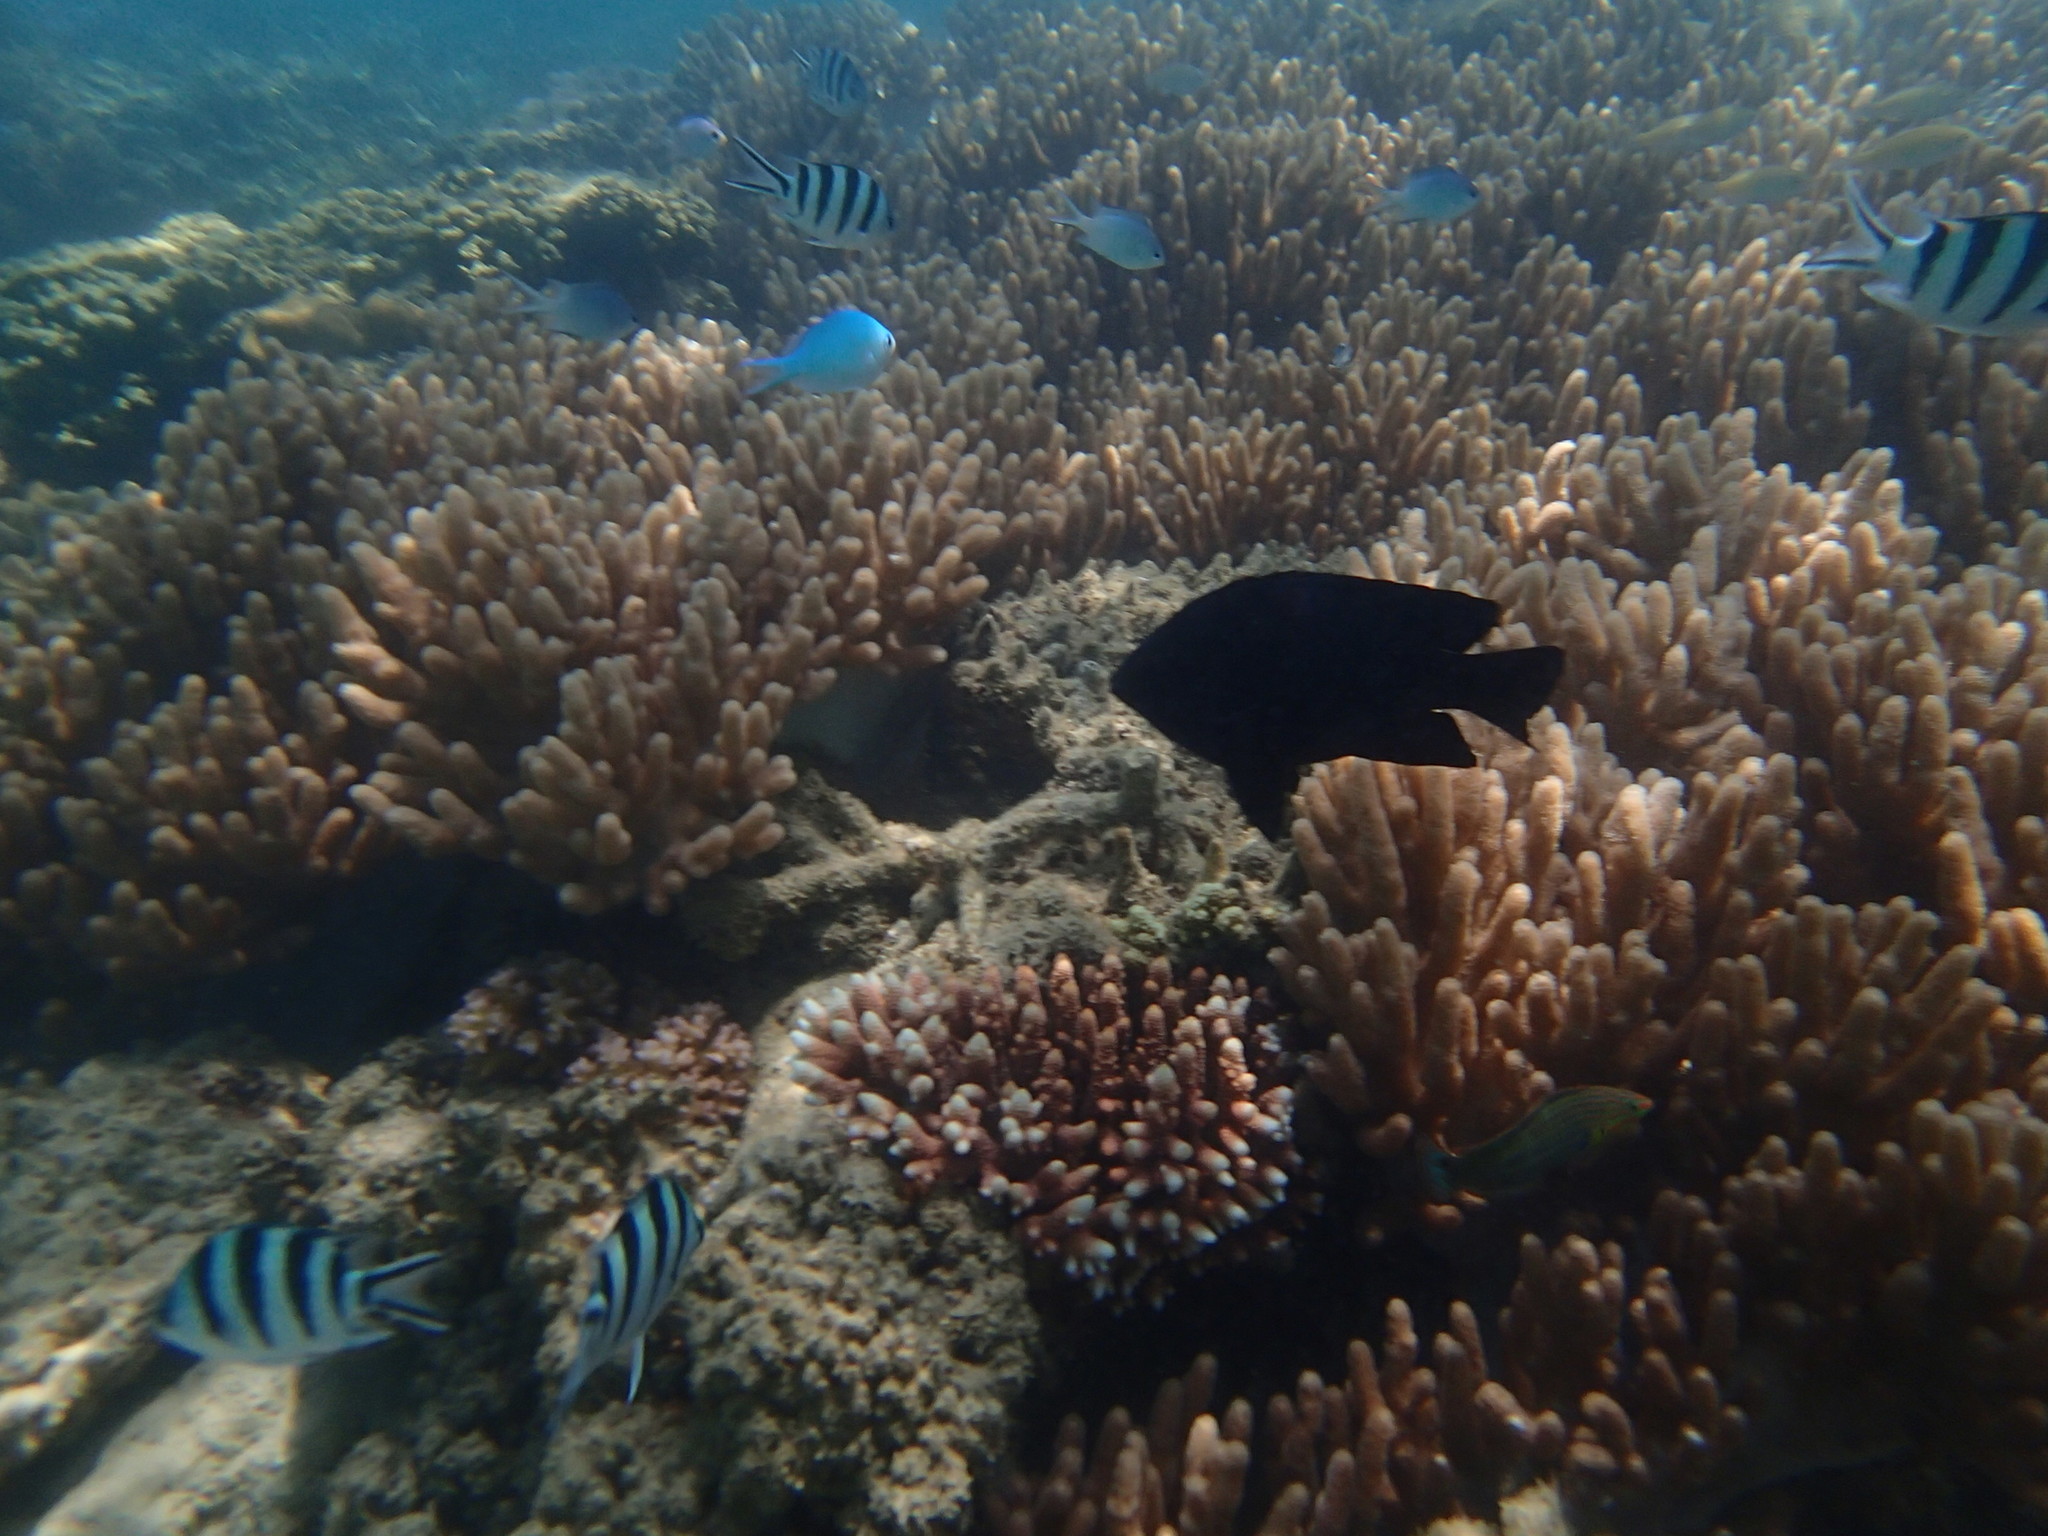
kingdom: Animalia
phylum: Chordata
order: Perciformes
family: Pomacentridae
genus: Chromis
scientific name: Chromis viridis
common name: Blue-green chromis
